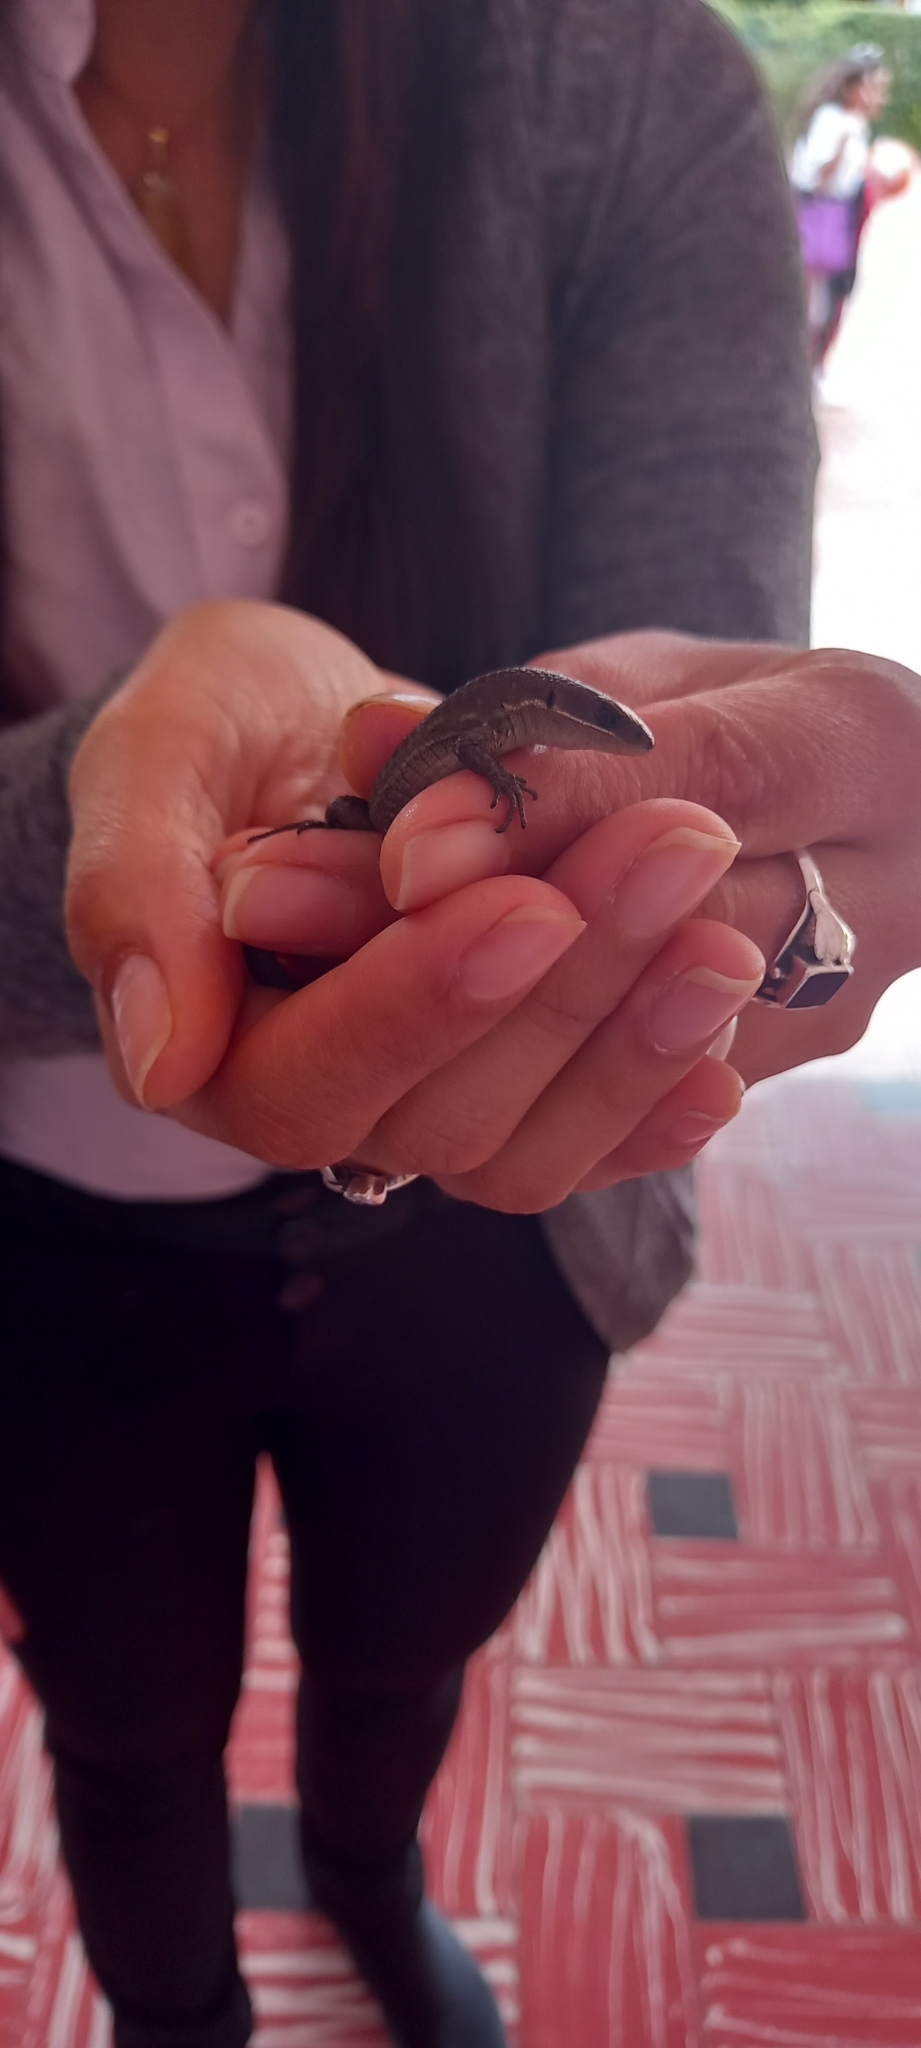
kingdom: Animalia
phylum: Chordata
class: Squamata
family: Gymnophthalmidae
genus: Pholidobolus
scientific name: Pholidobolus vertebralis
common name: Brown prionodactylus
